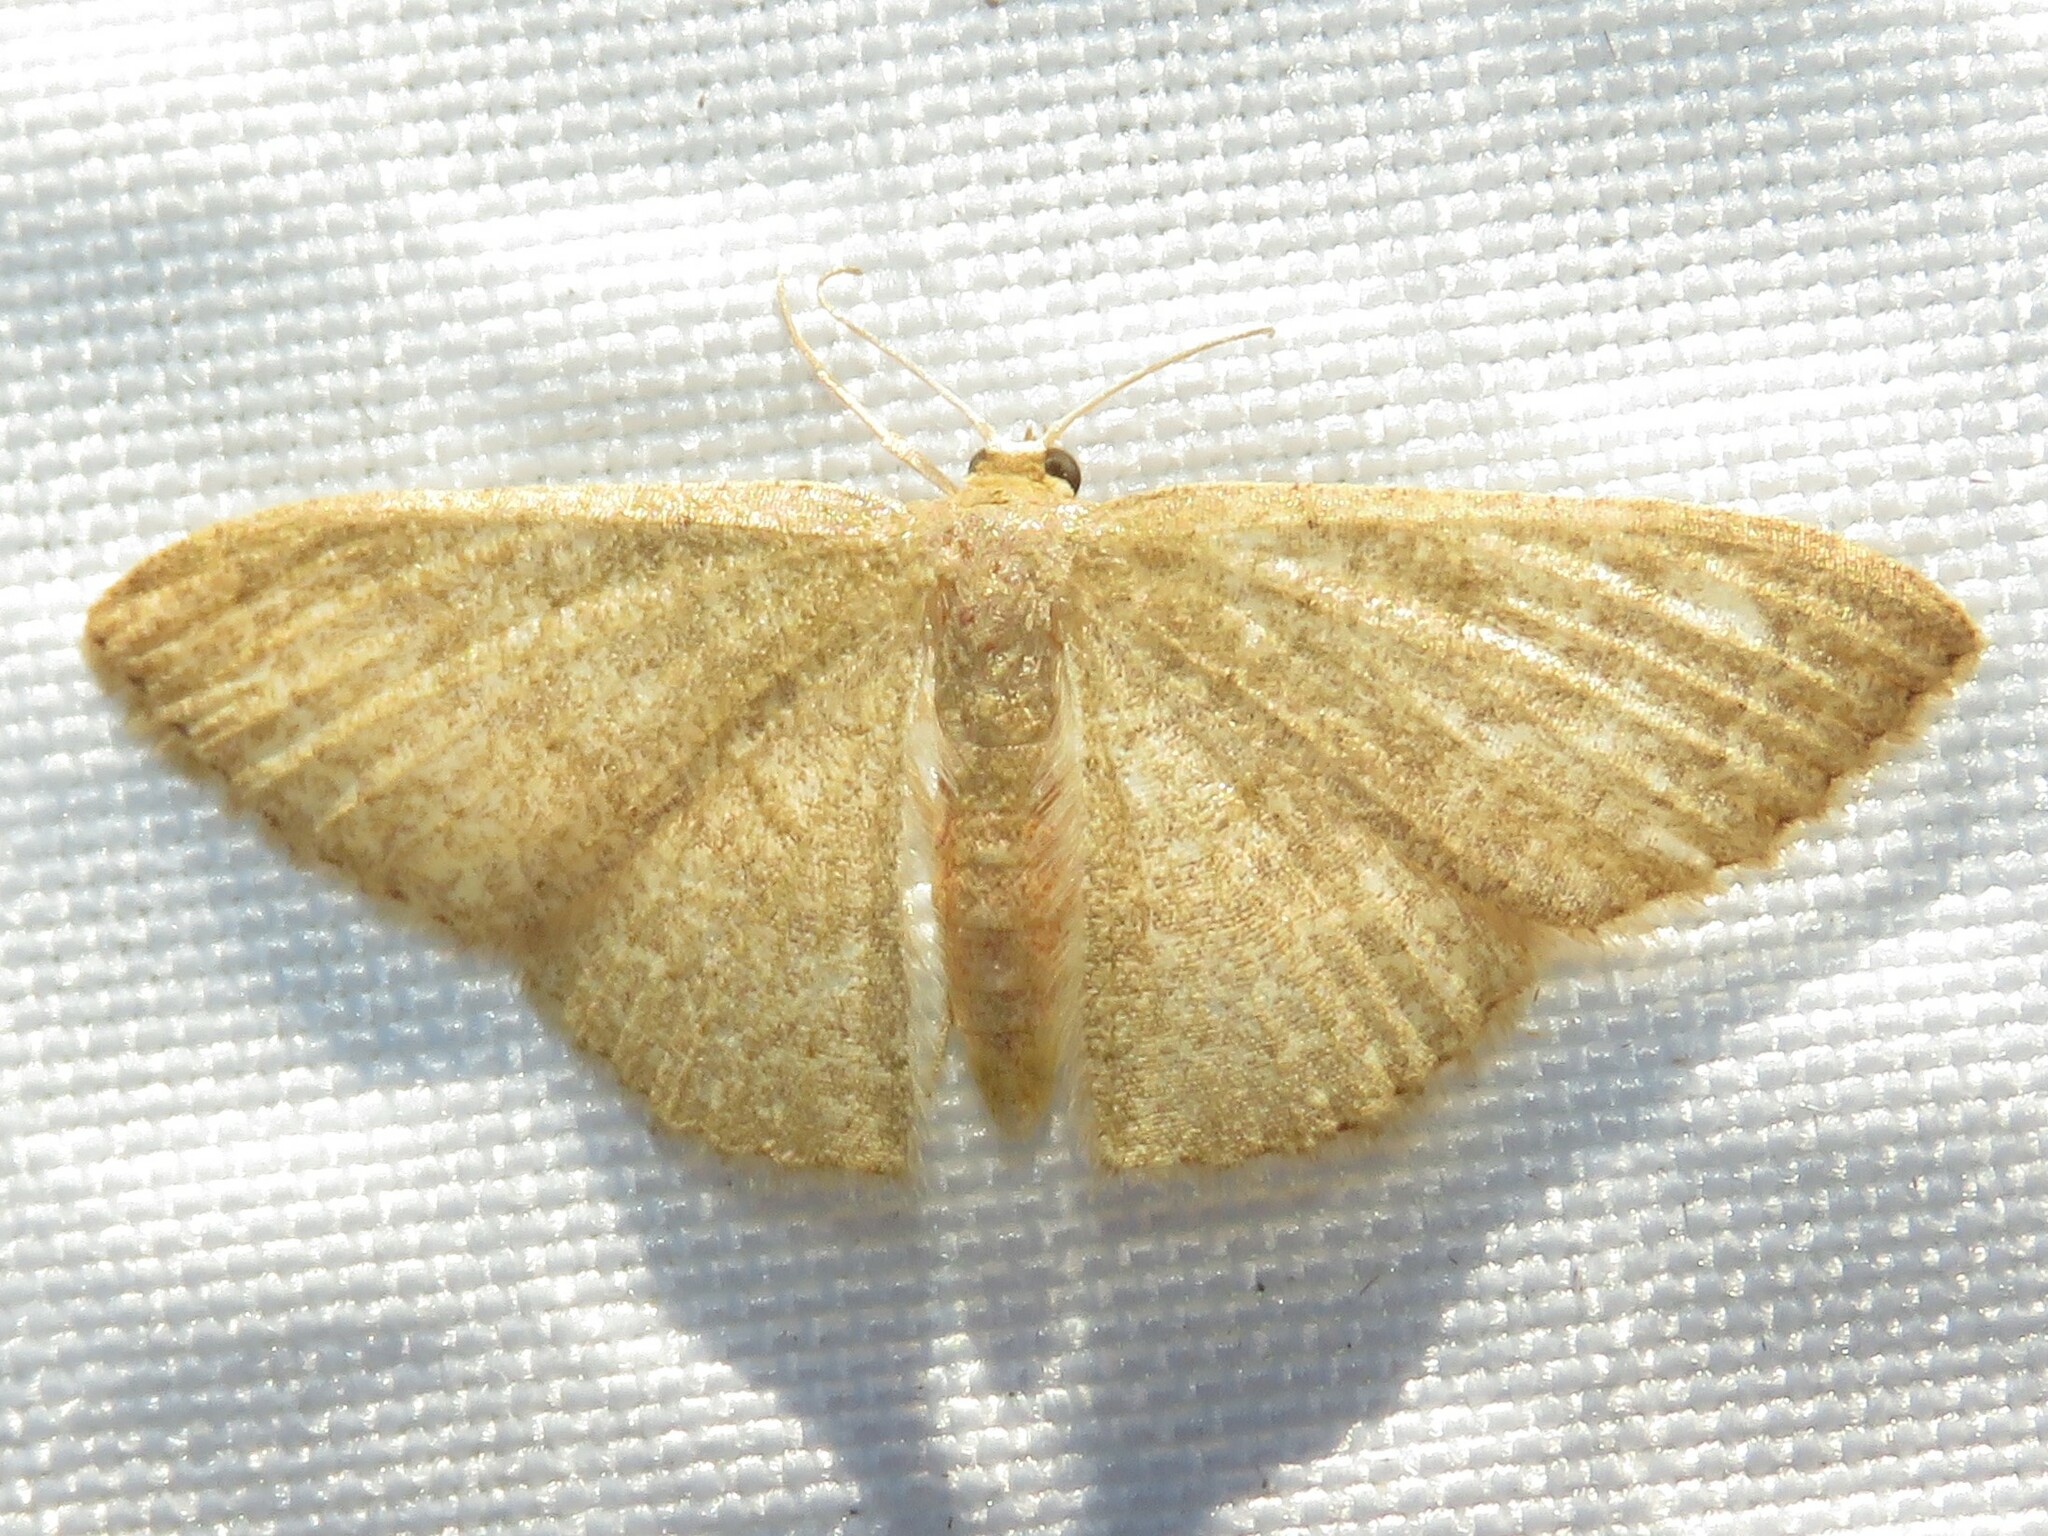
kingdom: Animalia
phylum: Arthropoda
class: Insecta
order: Lepidoptera
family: Geometridae
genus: Pleuroprucha
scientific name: Pleuroprucha insulsaria
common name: Common tan wave
